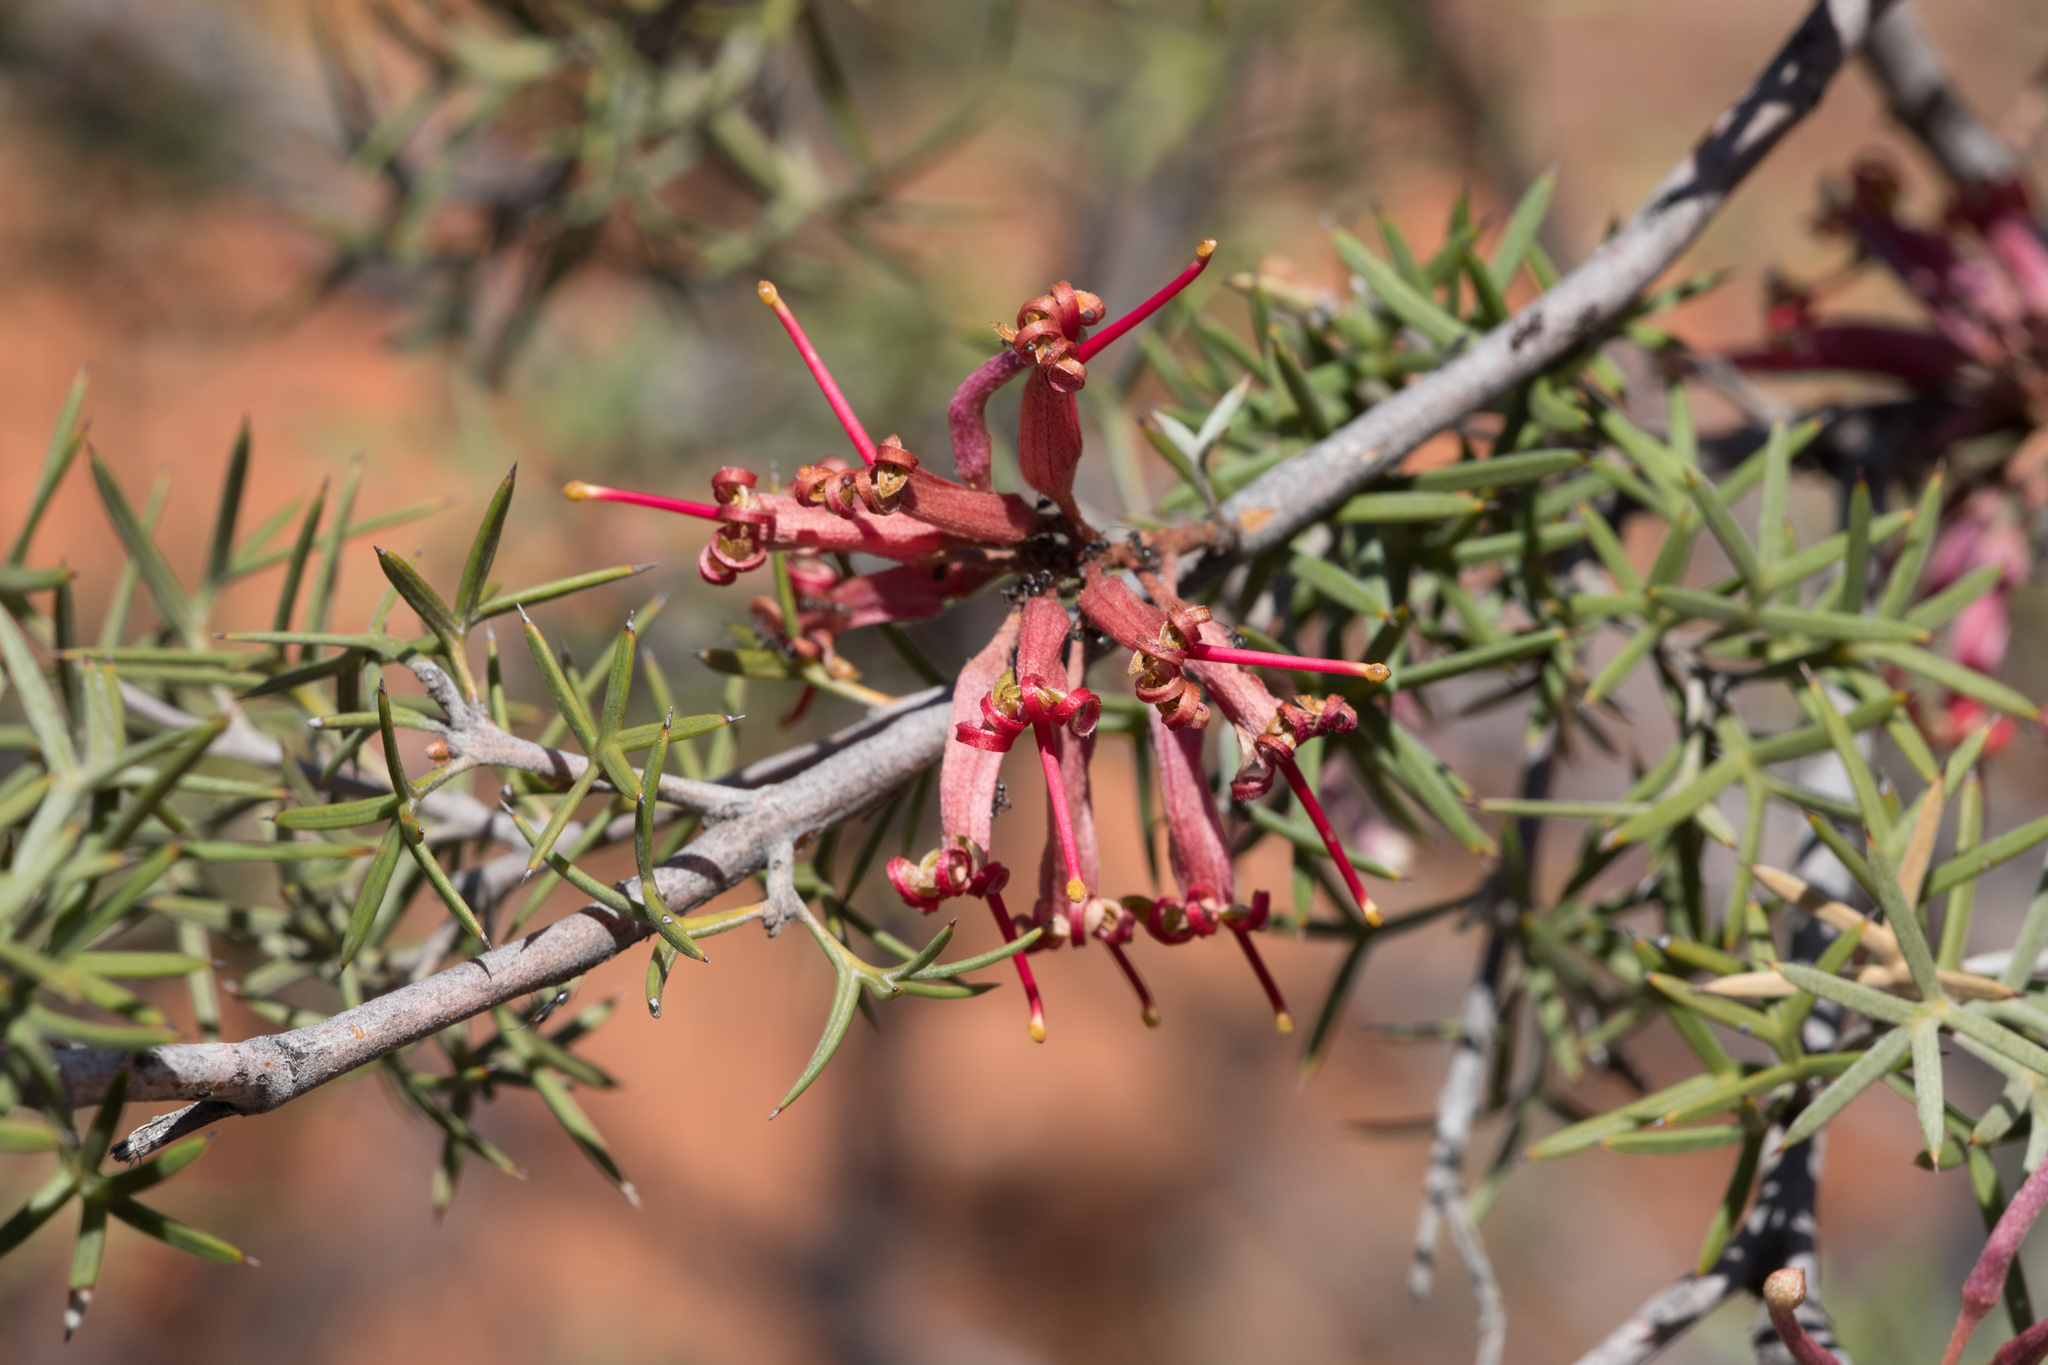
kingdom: Plantae
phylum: Tracheophyta
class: Magnoliopsida
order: Proteales
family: Proteaceae
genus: Grevillea
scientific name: Grevillea huegelii
